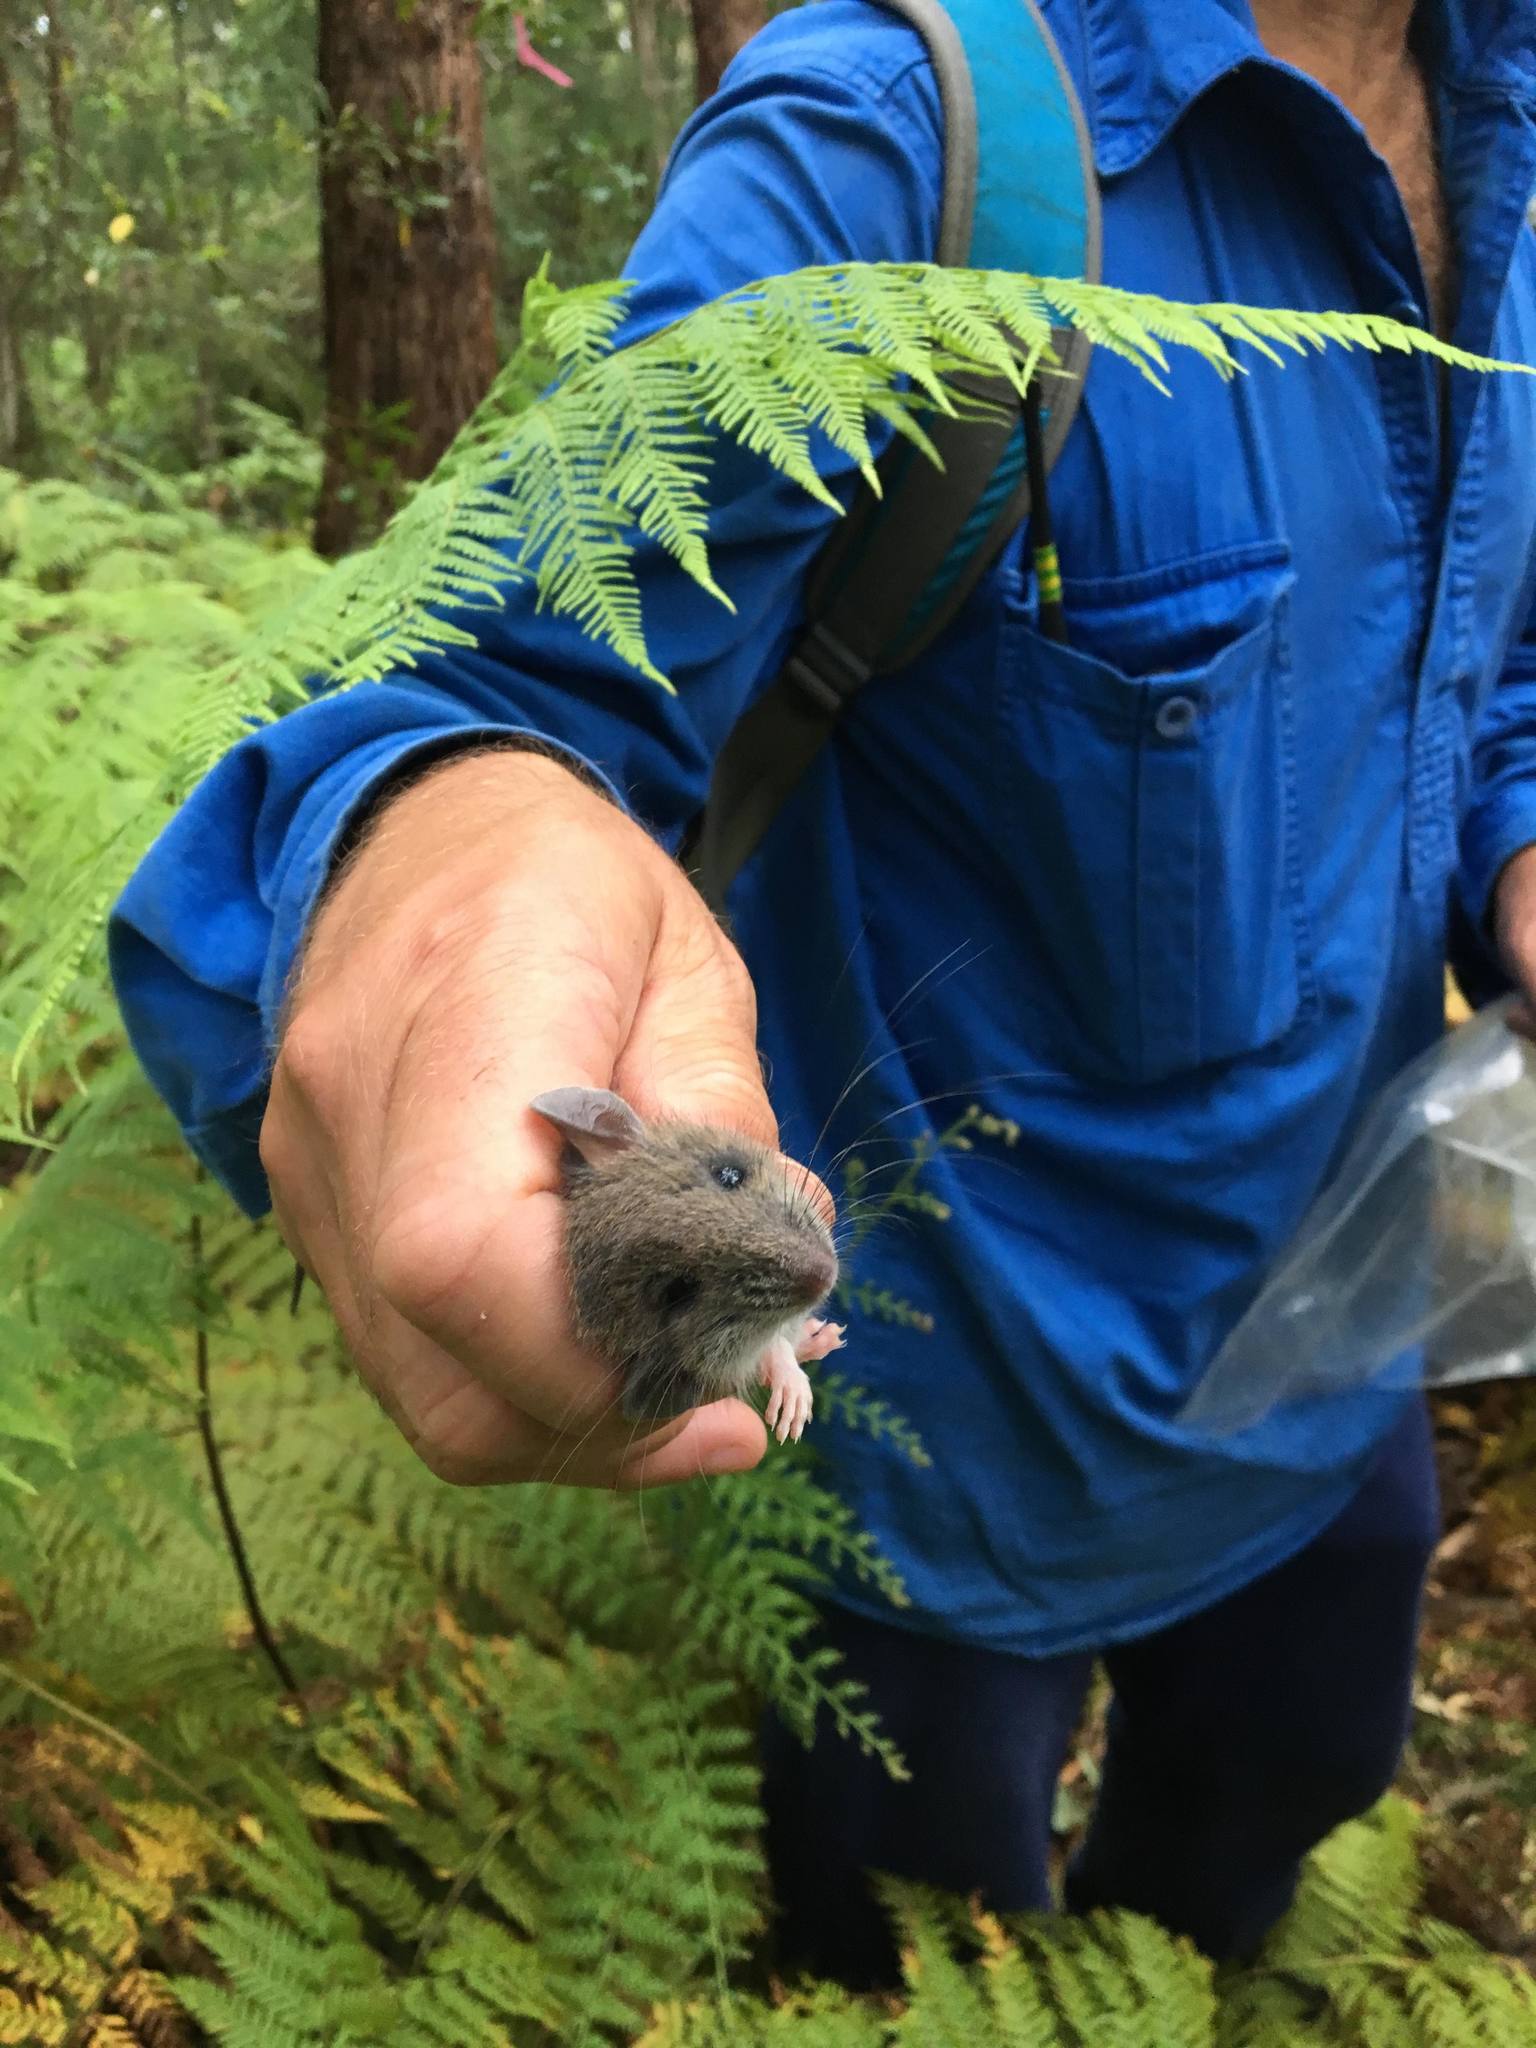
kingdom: Animalia
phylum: Chordata
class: Mammalia
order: Rodentia
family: Muridae
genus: Rattus
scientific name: Rattus fuscipes
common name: Australian bush rat
